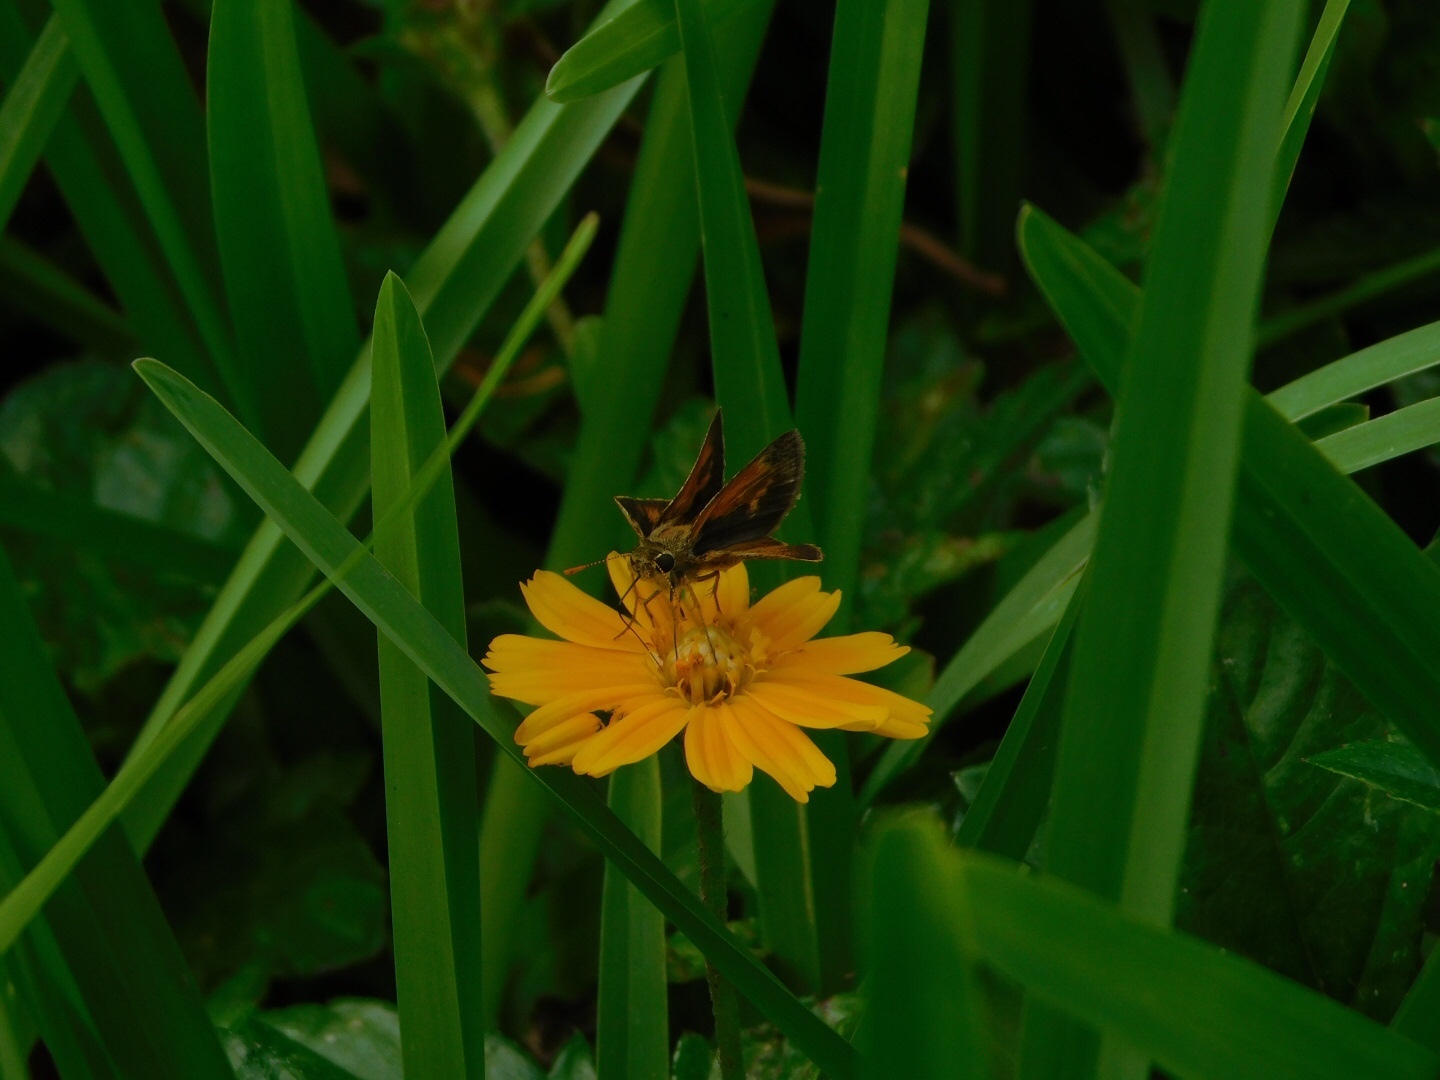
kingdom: Animalia
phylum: Arthropoda
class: Insecta
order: Lepidoptera
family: Hesperiidae
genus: Polites
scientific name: Polites baracoa
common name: Baracoa skipper
